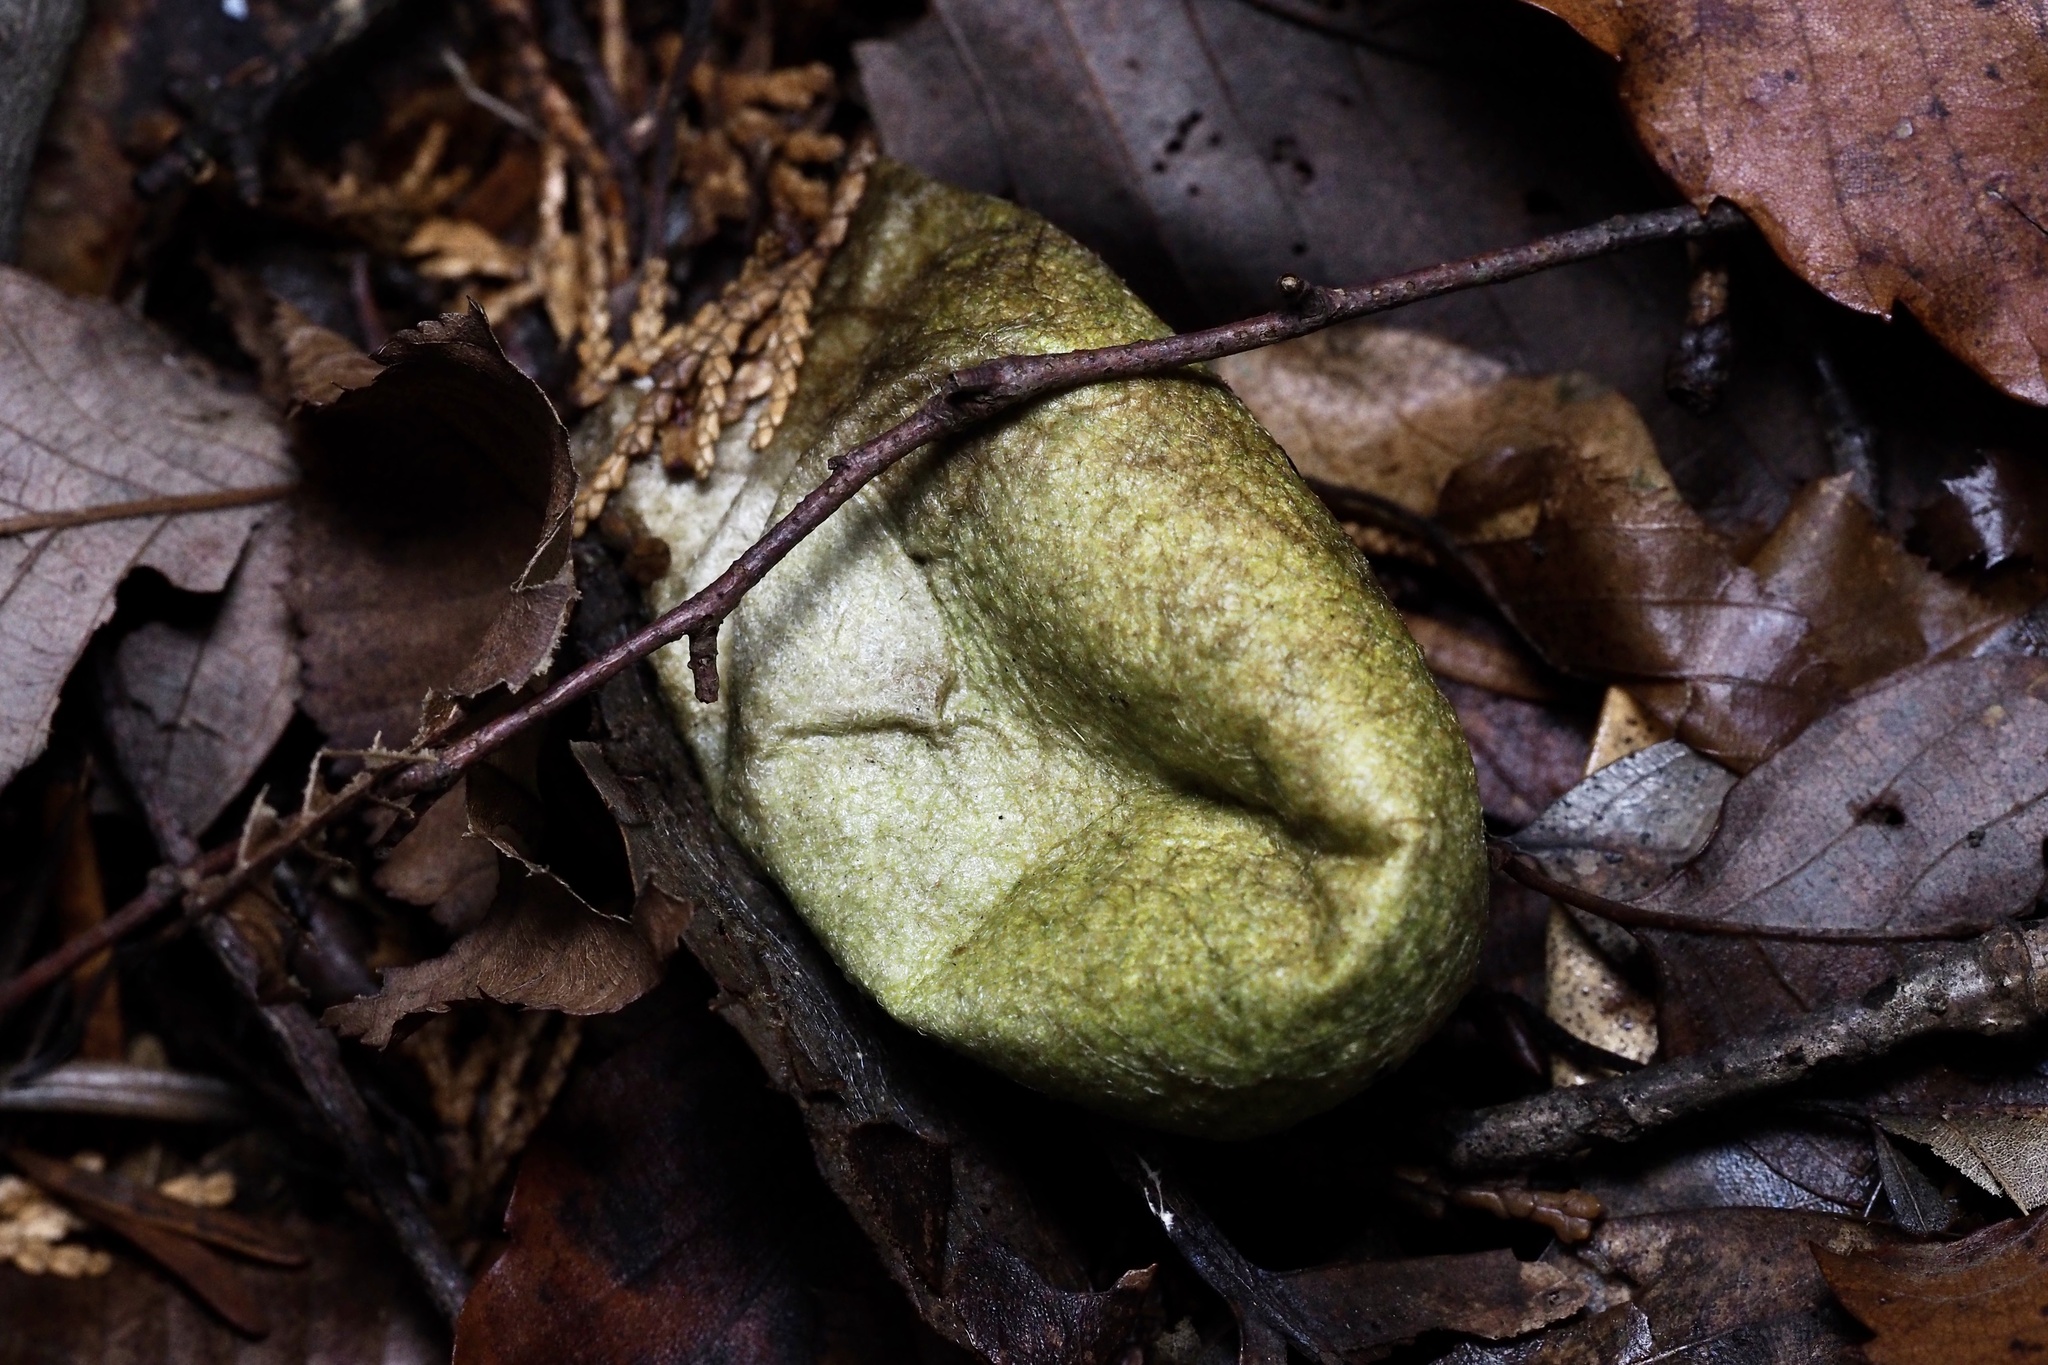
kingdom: Animalia
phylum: Arthropoda
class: Insecta
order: Lepidoptera
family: Saturniidae
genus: Antheraea
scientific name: Antheraea yamamai
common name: Japanese oak silk moth
